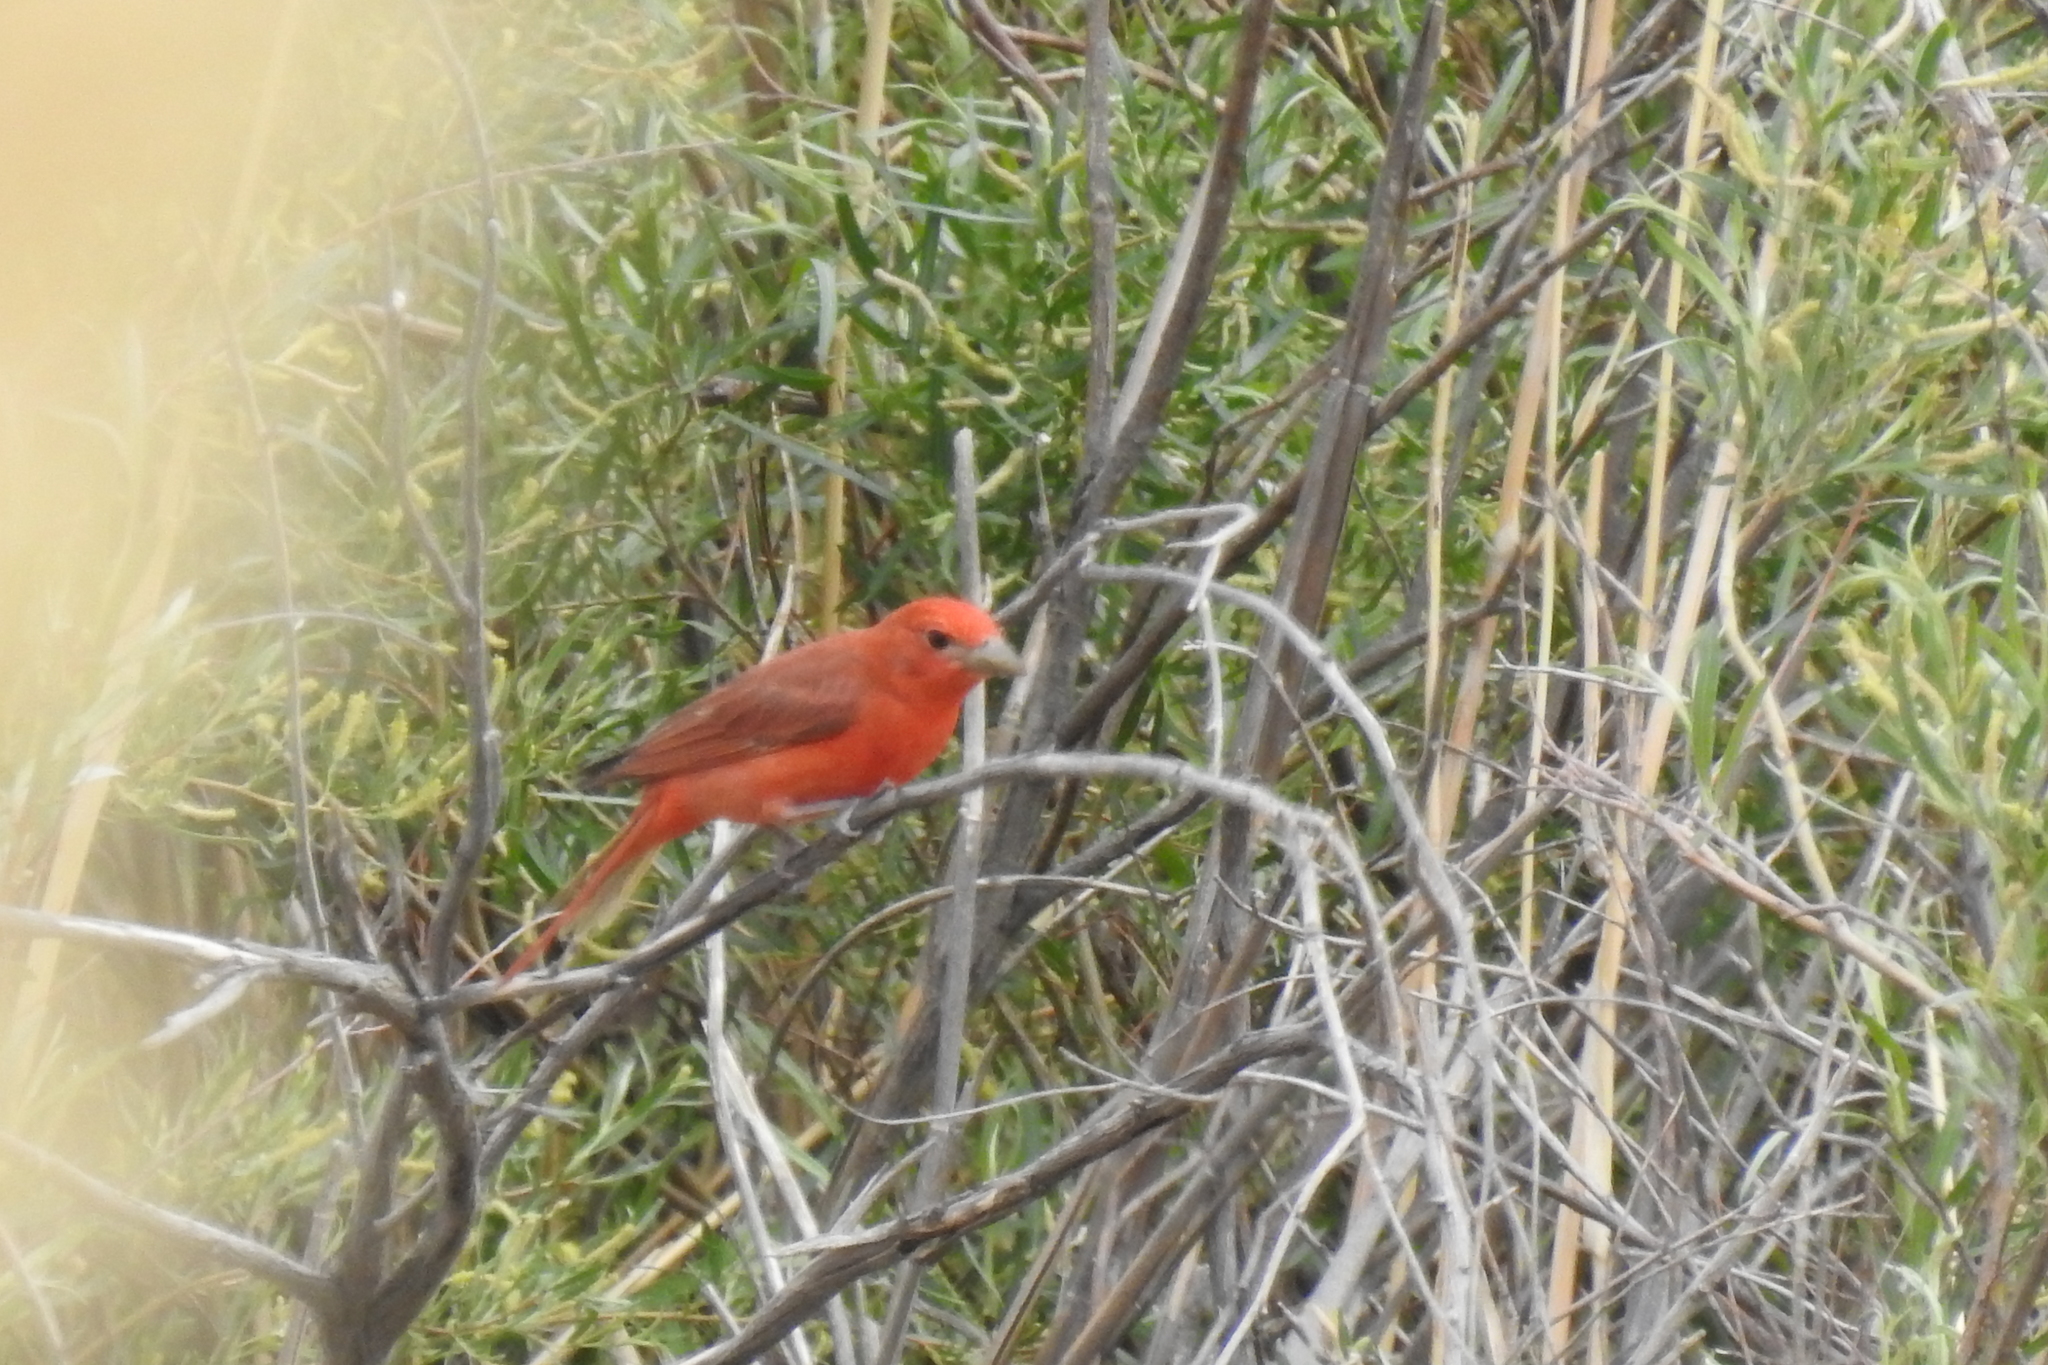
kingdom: Animalia
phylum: Chordata
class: Aves
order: Passeriformes
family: Cardinalidae
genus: Piranga
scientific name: Piranga rubra
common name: Summer tanager
